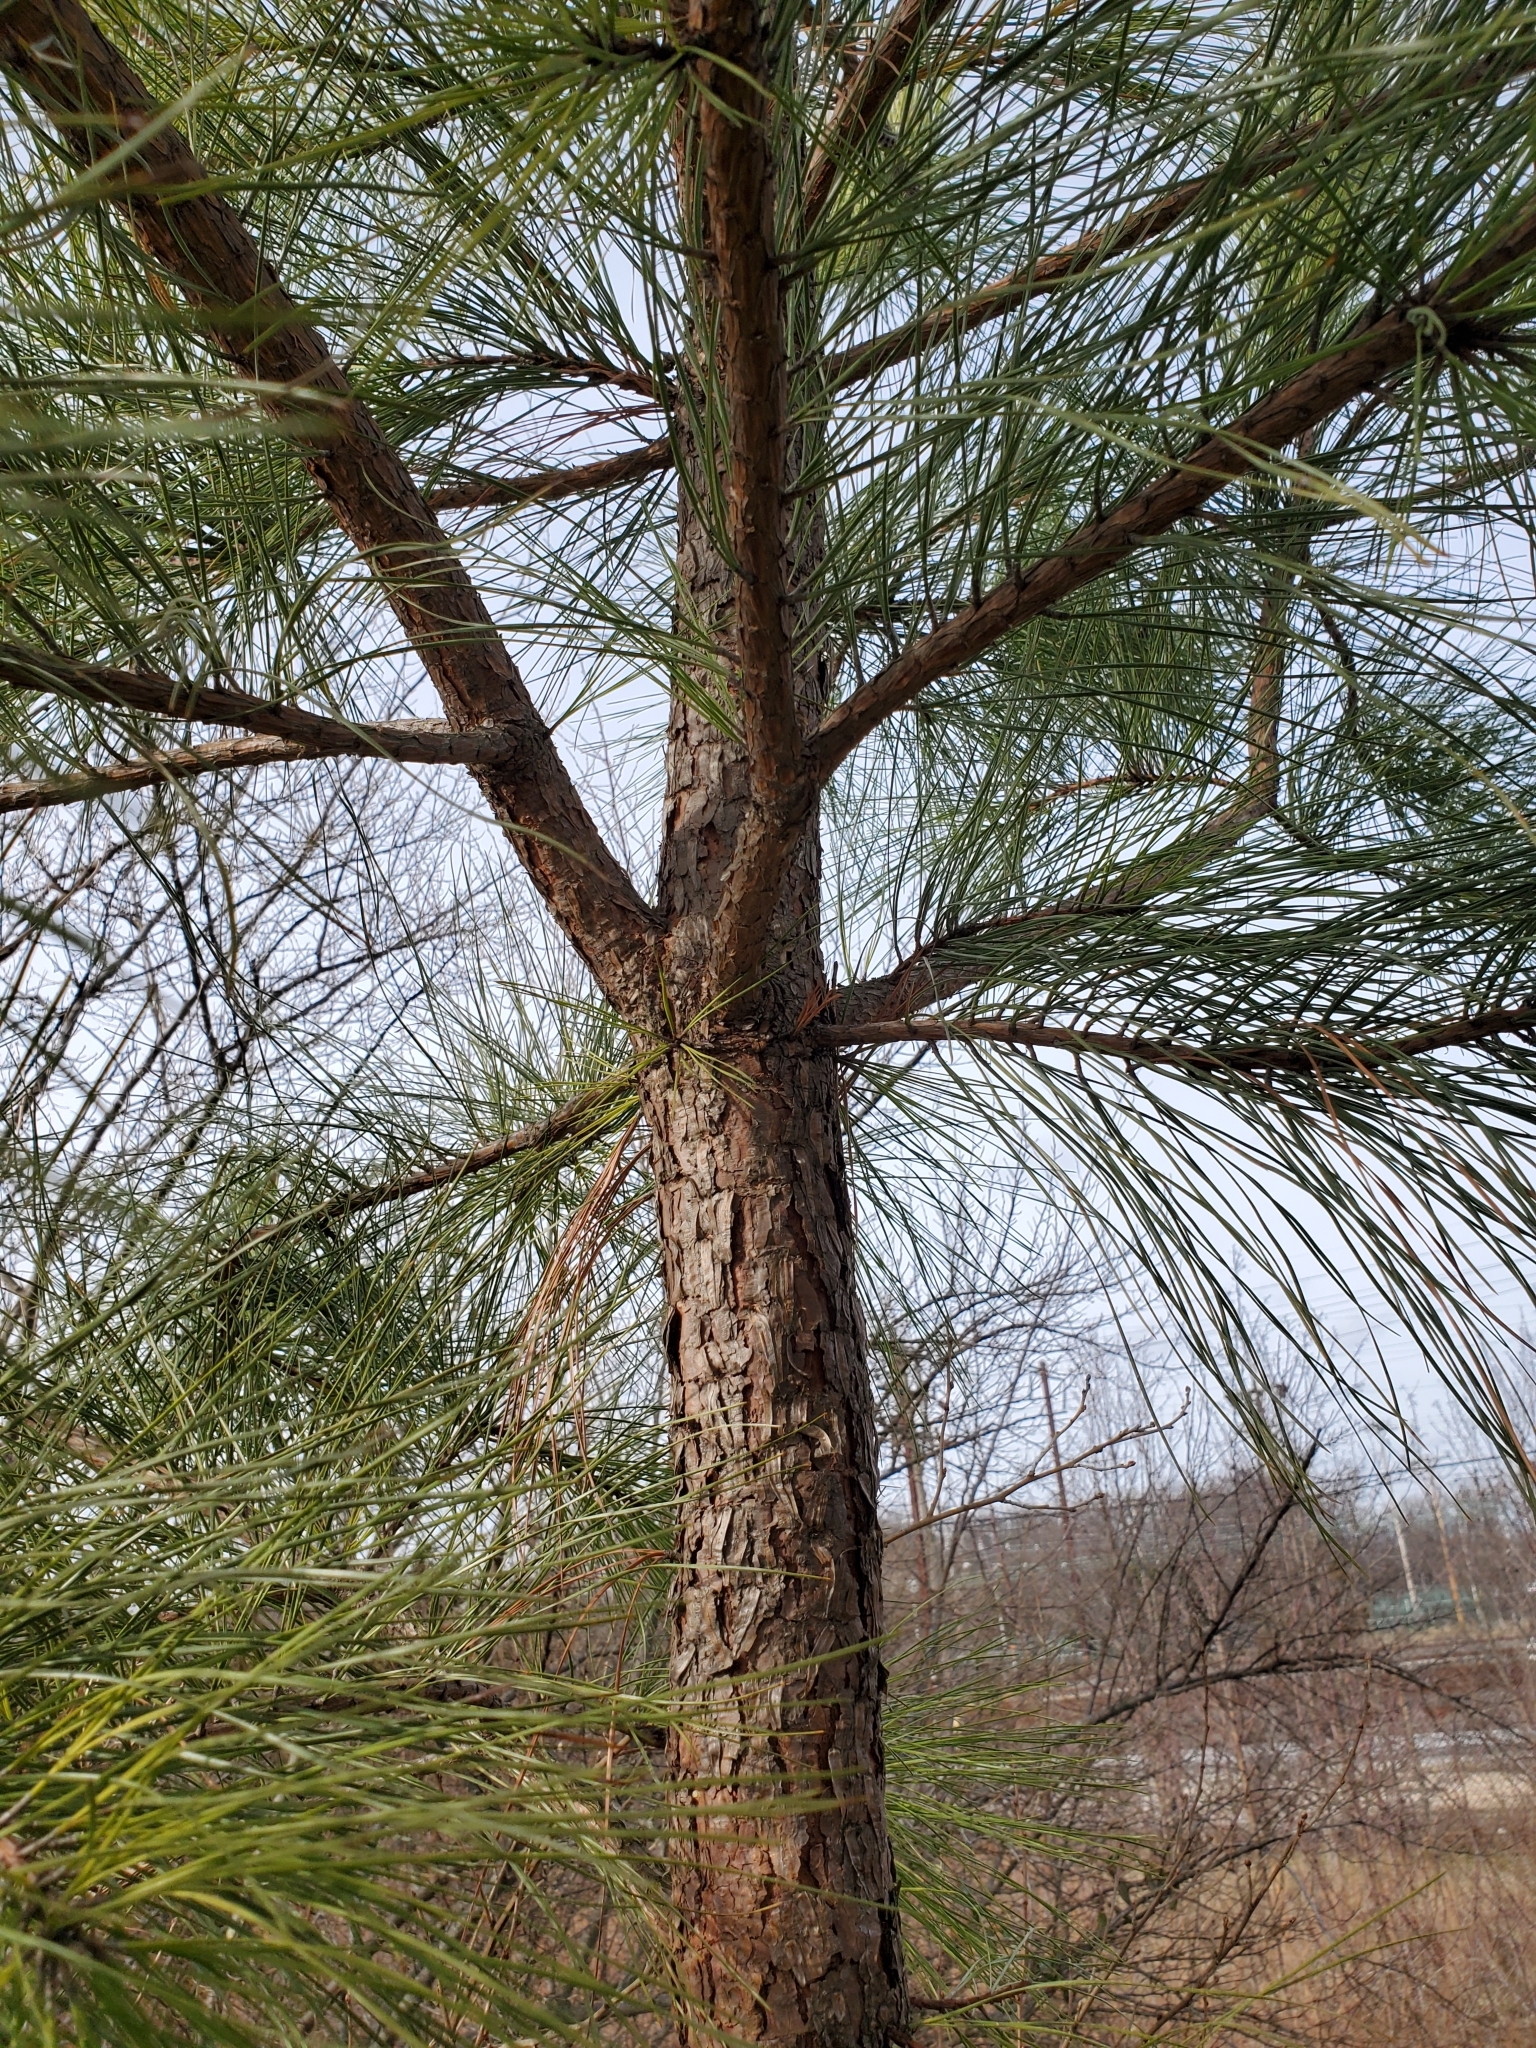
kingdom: Plantae
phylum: Tracheophyta
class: Pinopsida
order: Pinales
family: Pinaceae
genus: Pinus
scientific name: Pinus taeda
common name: Loblolly pine
